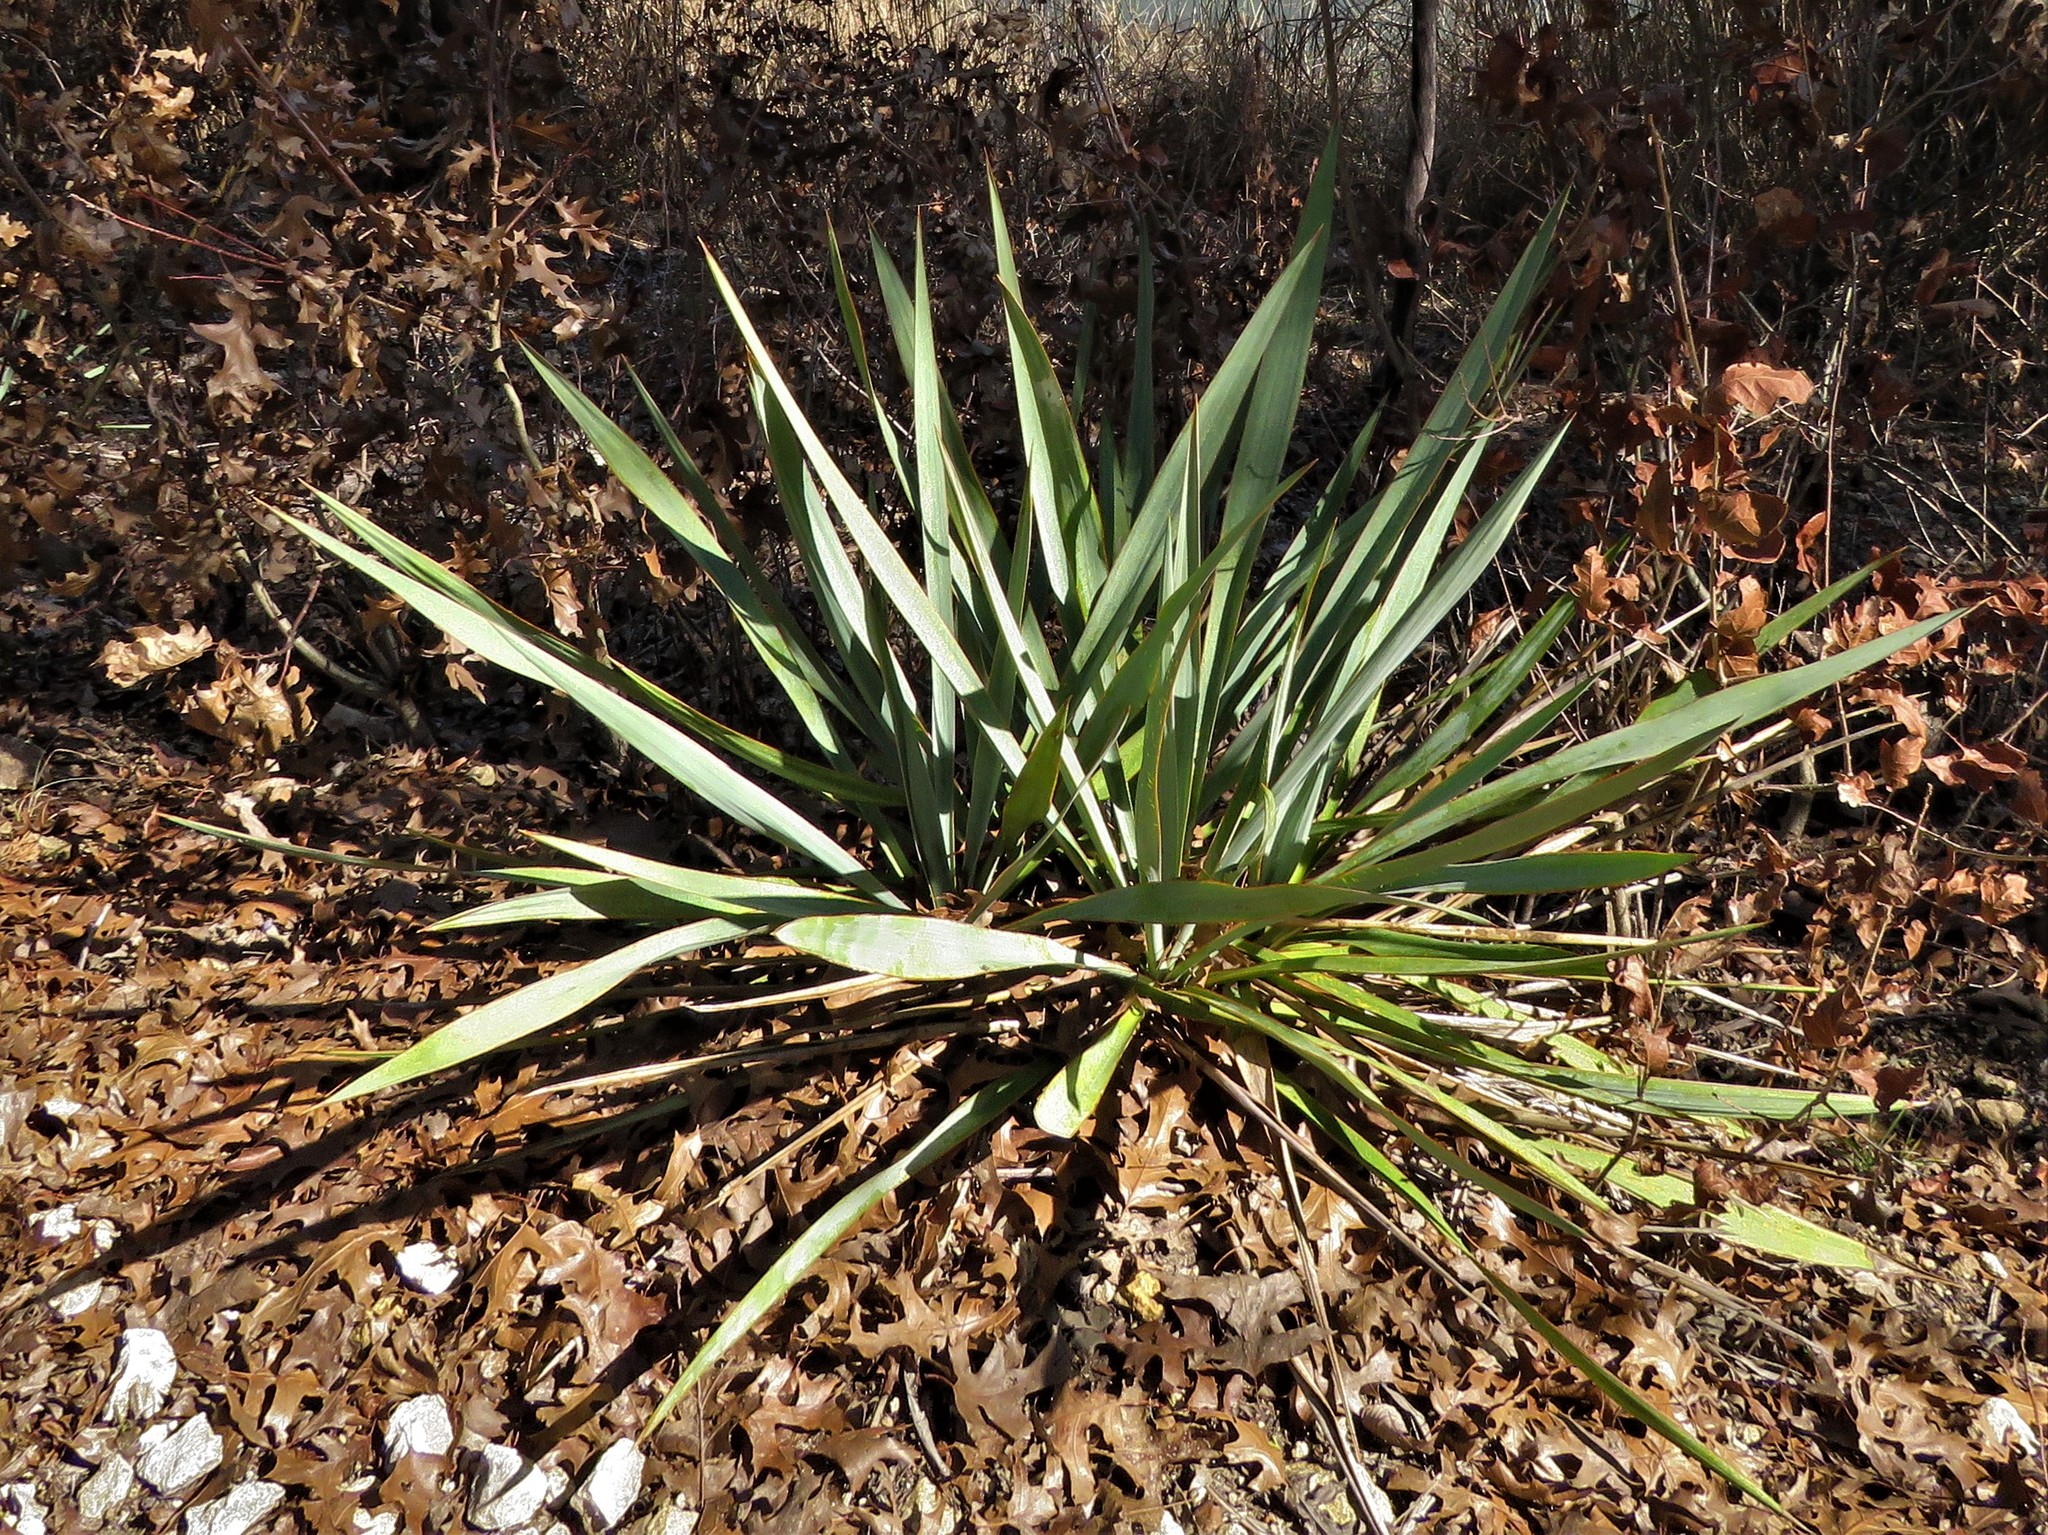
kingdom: Plantae
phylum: Tracheophyta
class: Liliopsida
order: Asparagales
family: Asparagaceae
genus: Yucca
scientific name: Yucca pallida
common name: Pale leaf yucca
